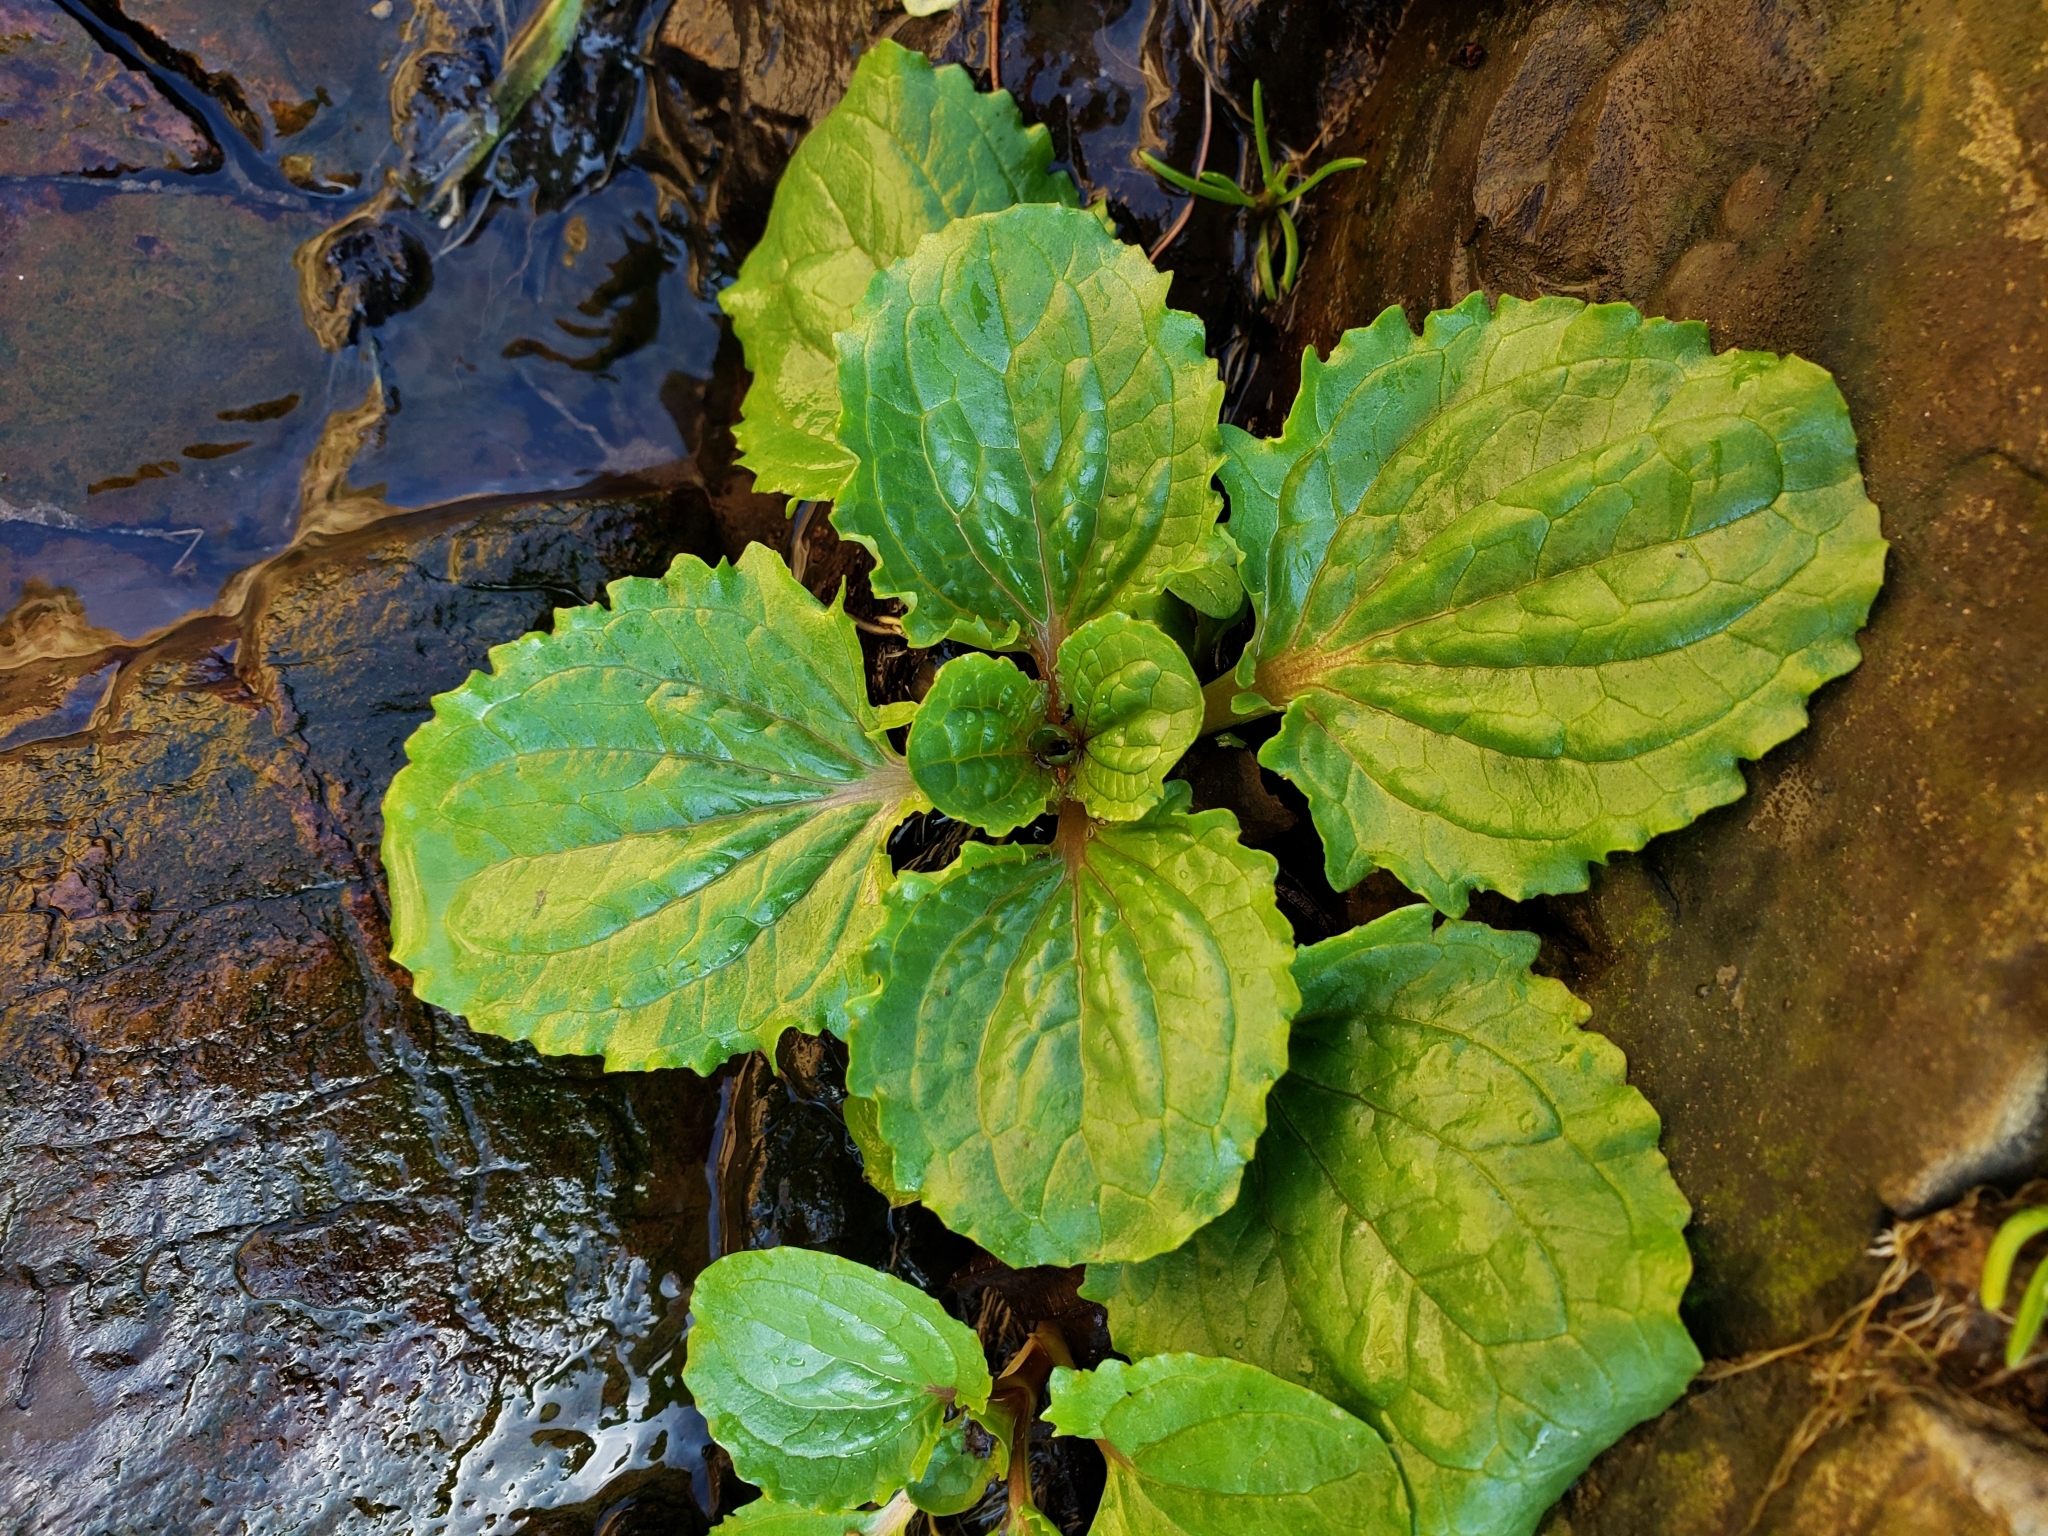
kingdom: Plantae
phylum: Tracheophyta
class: Magnoliopsida
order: Lamiales
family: Phrymaceae
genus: Erythranthe
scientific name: Erythranthe guttata
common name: Monkeyflower
